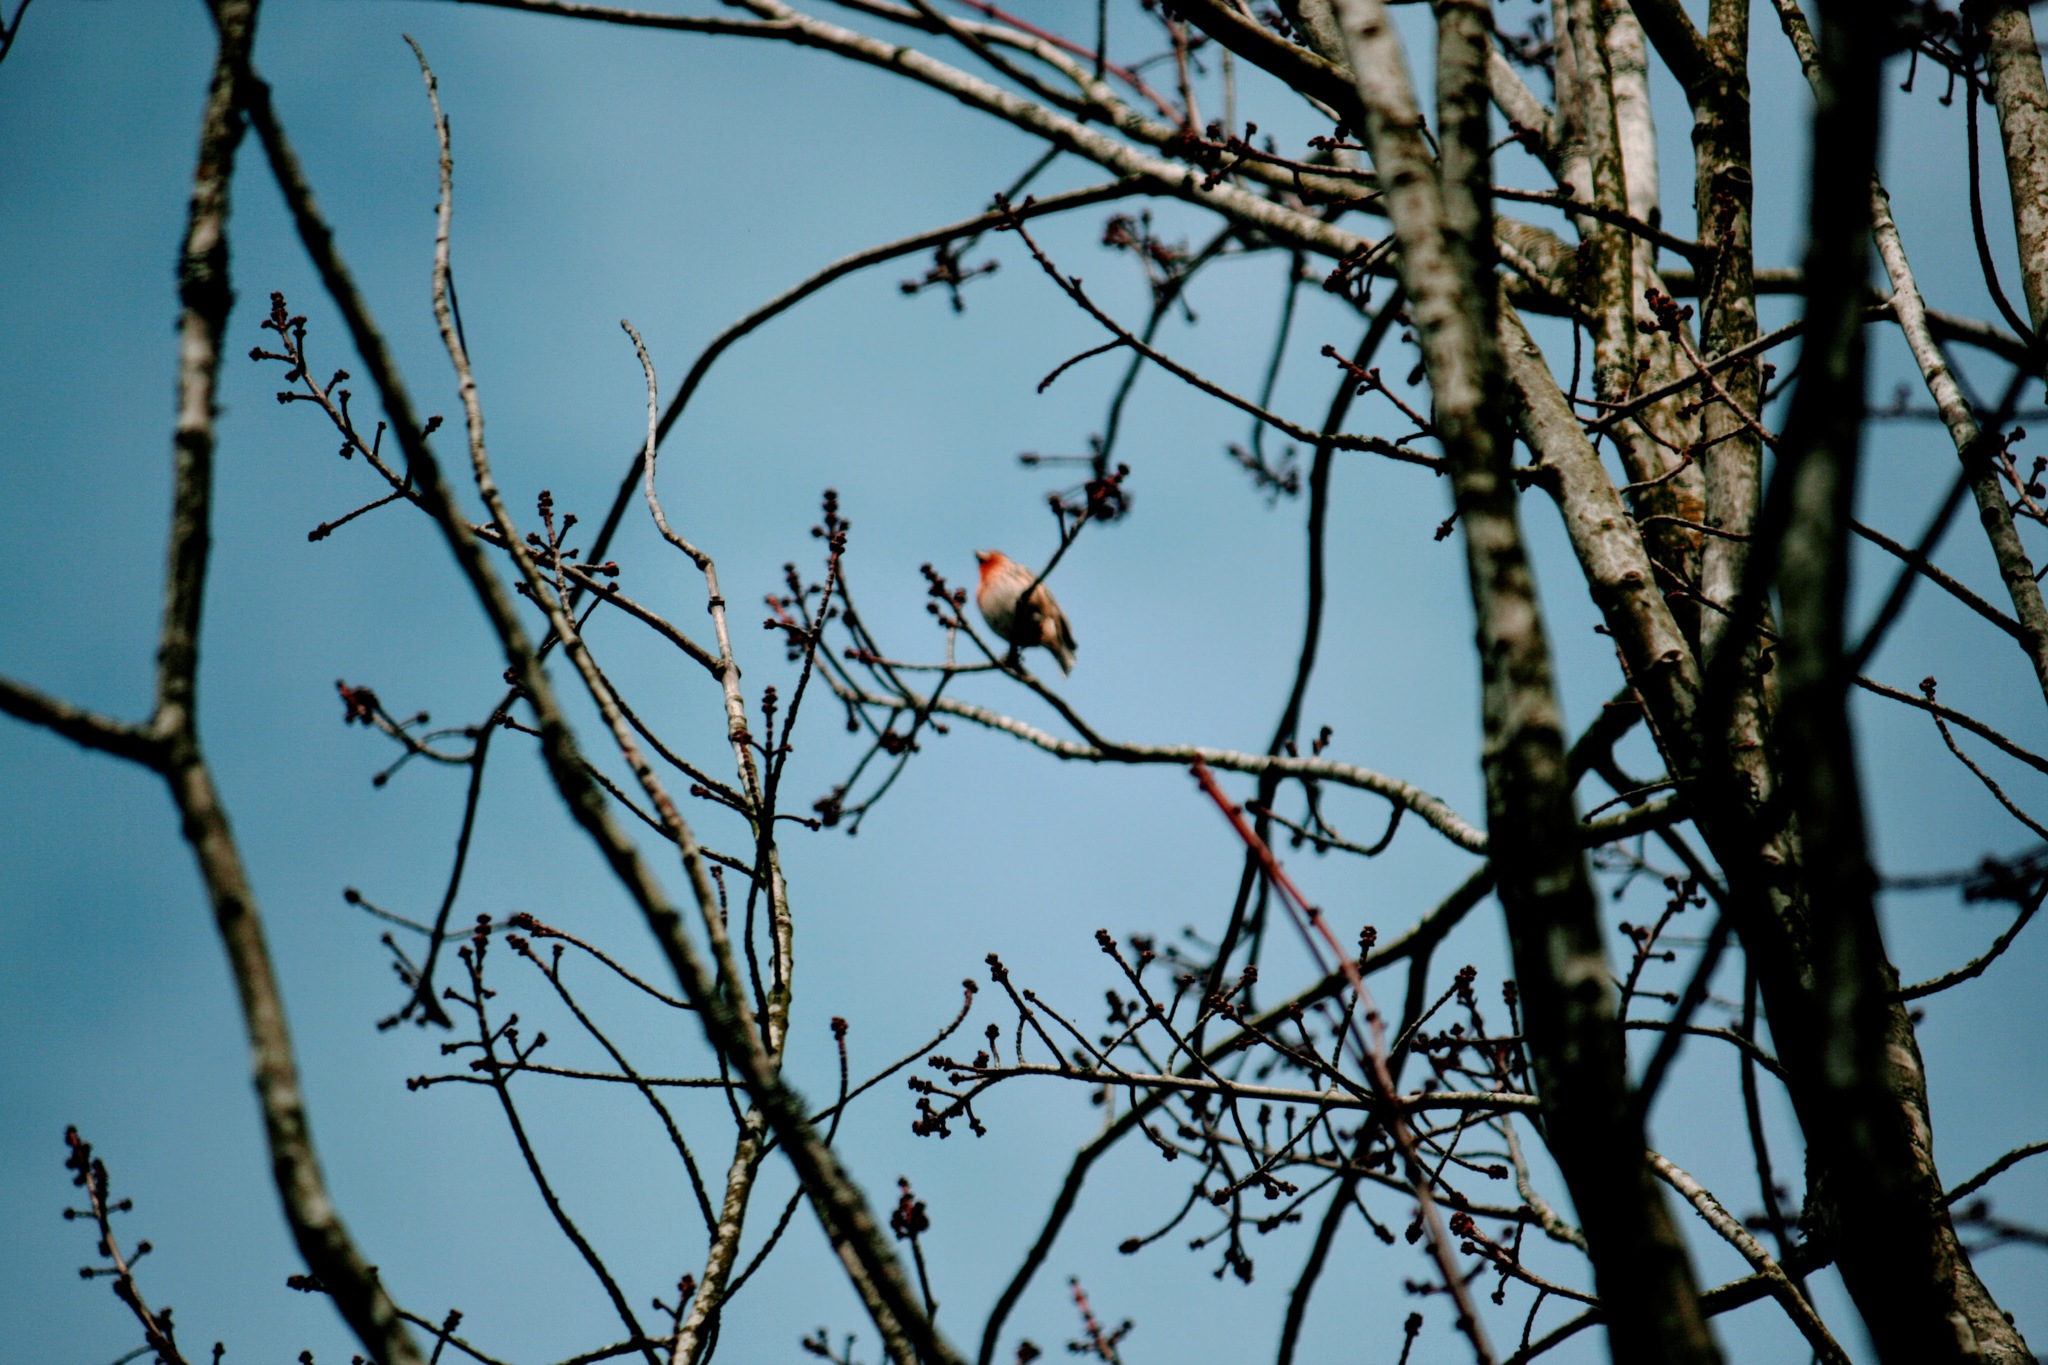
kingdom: Animalia
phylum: Chordata
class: Aves
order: Passeriformes
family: Fringillidae
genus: Haemorhous
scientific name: Haemorhous mexicanus
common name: House finch
